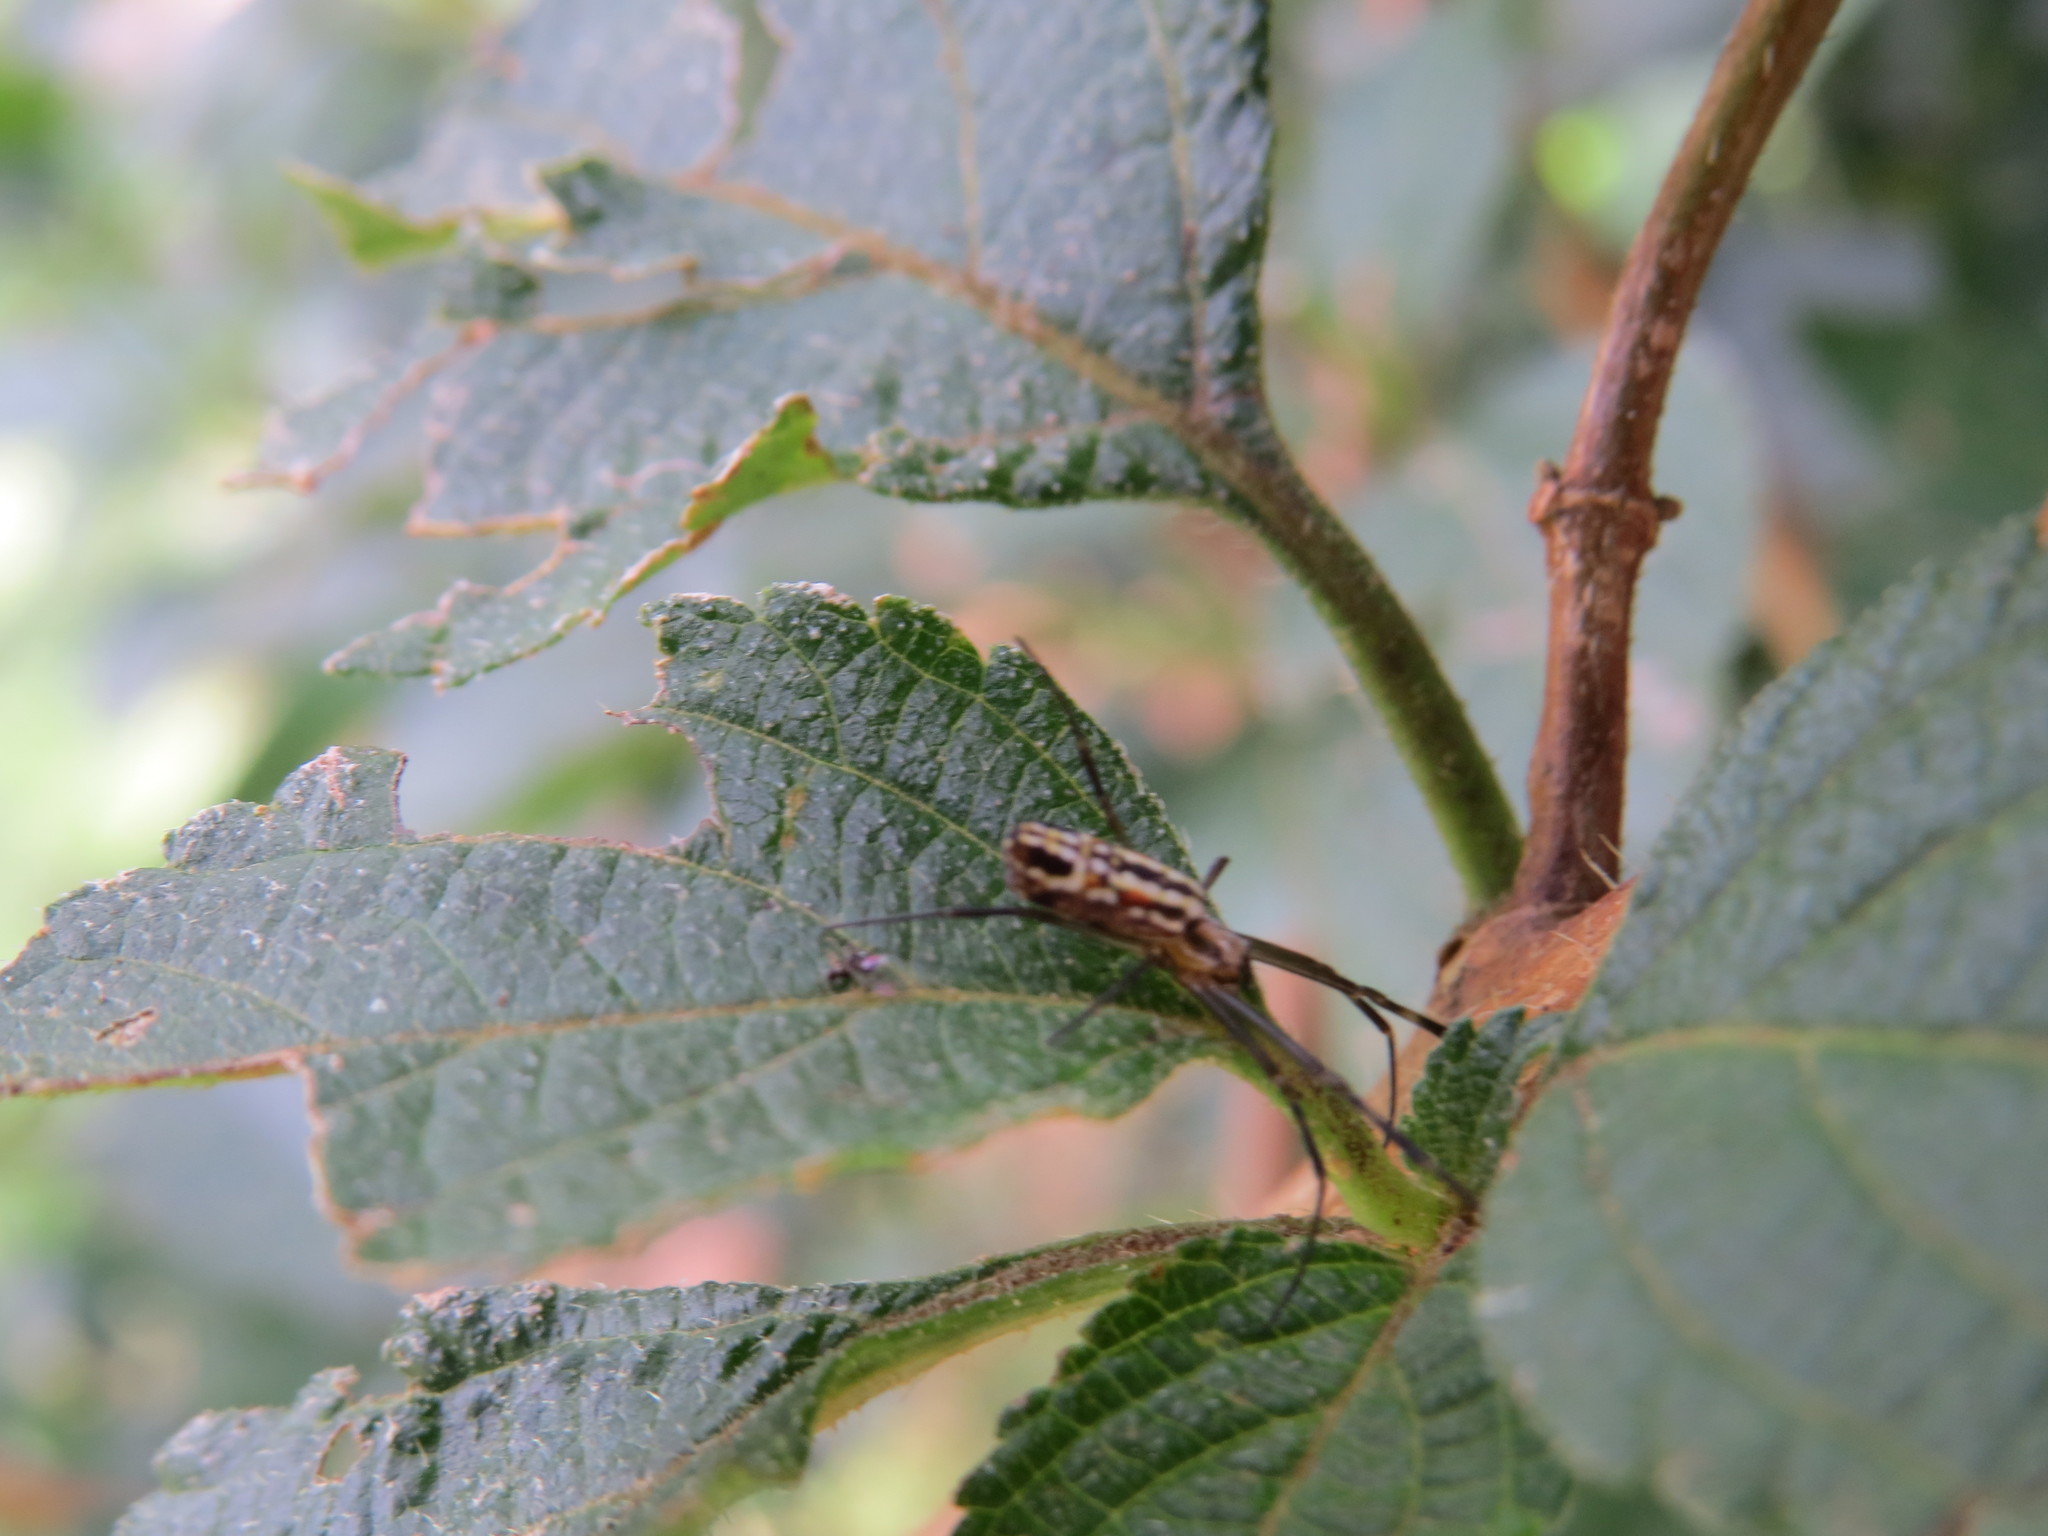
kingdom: Animalia
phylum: Arthropoda
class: Arachnida
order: Araneae
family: Araneidae
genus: Trichonephila
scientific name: Trichonephila clavipes
